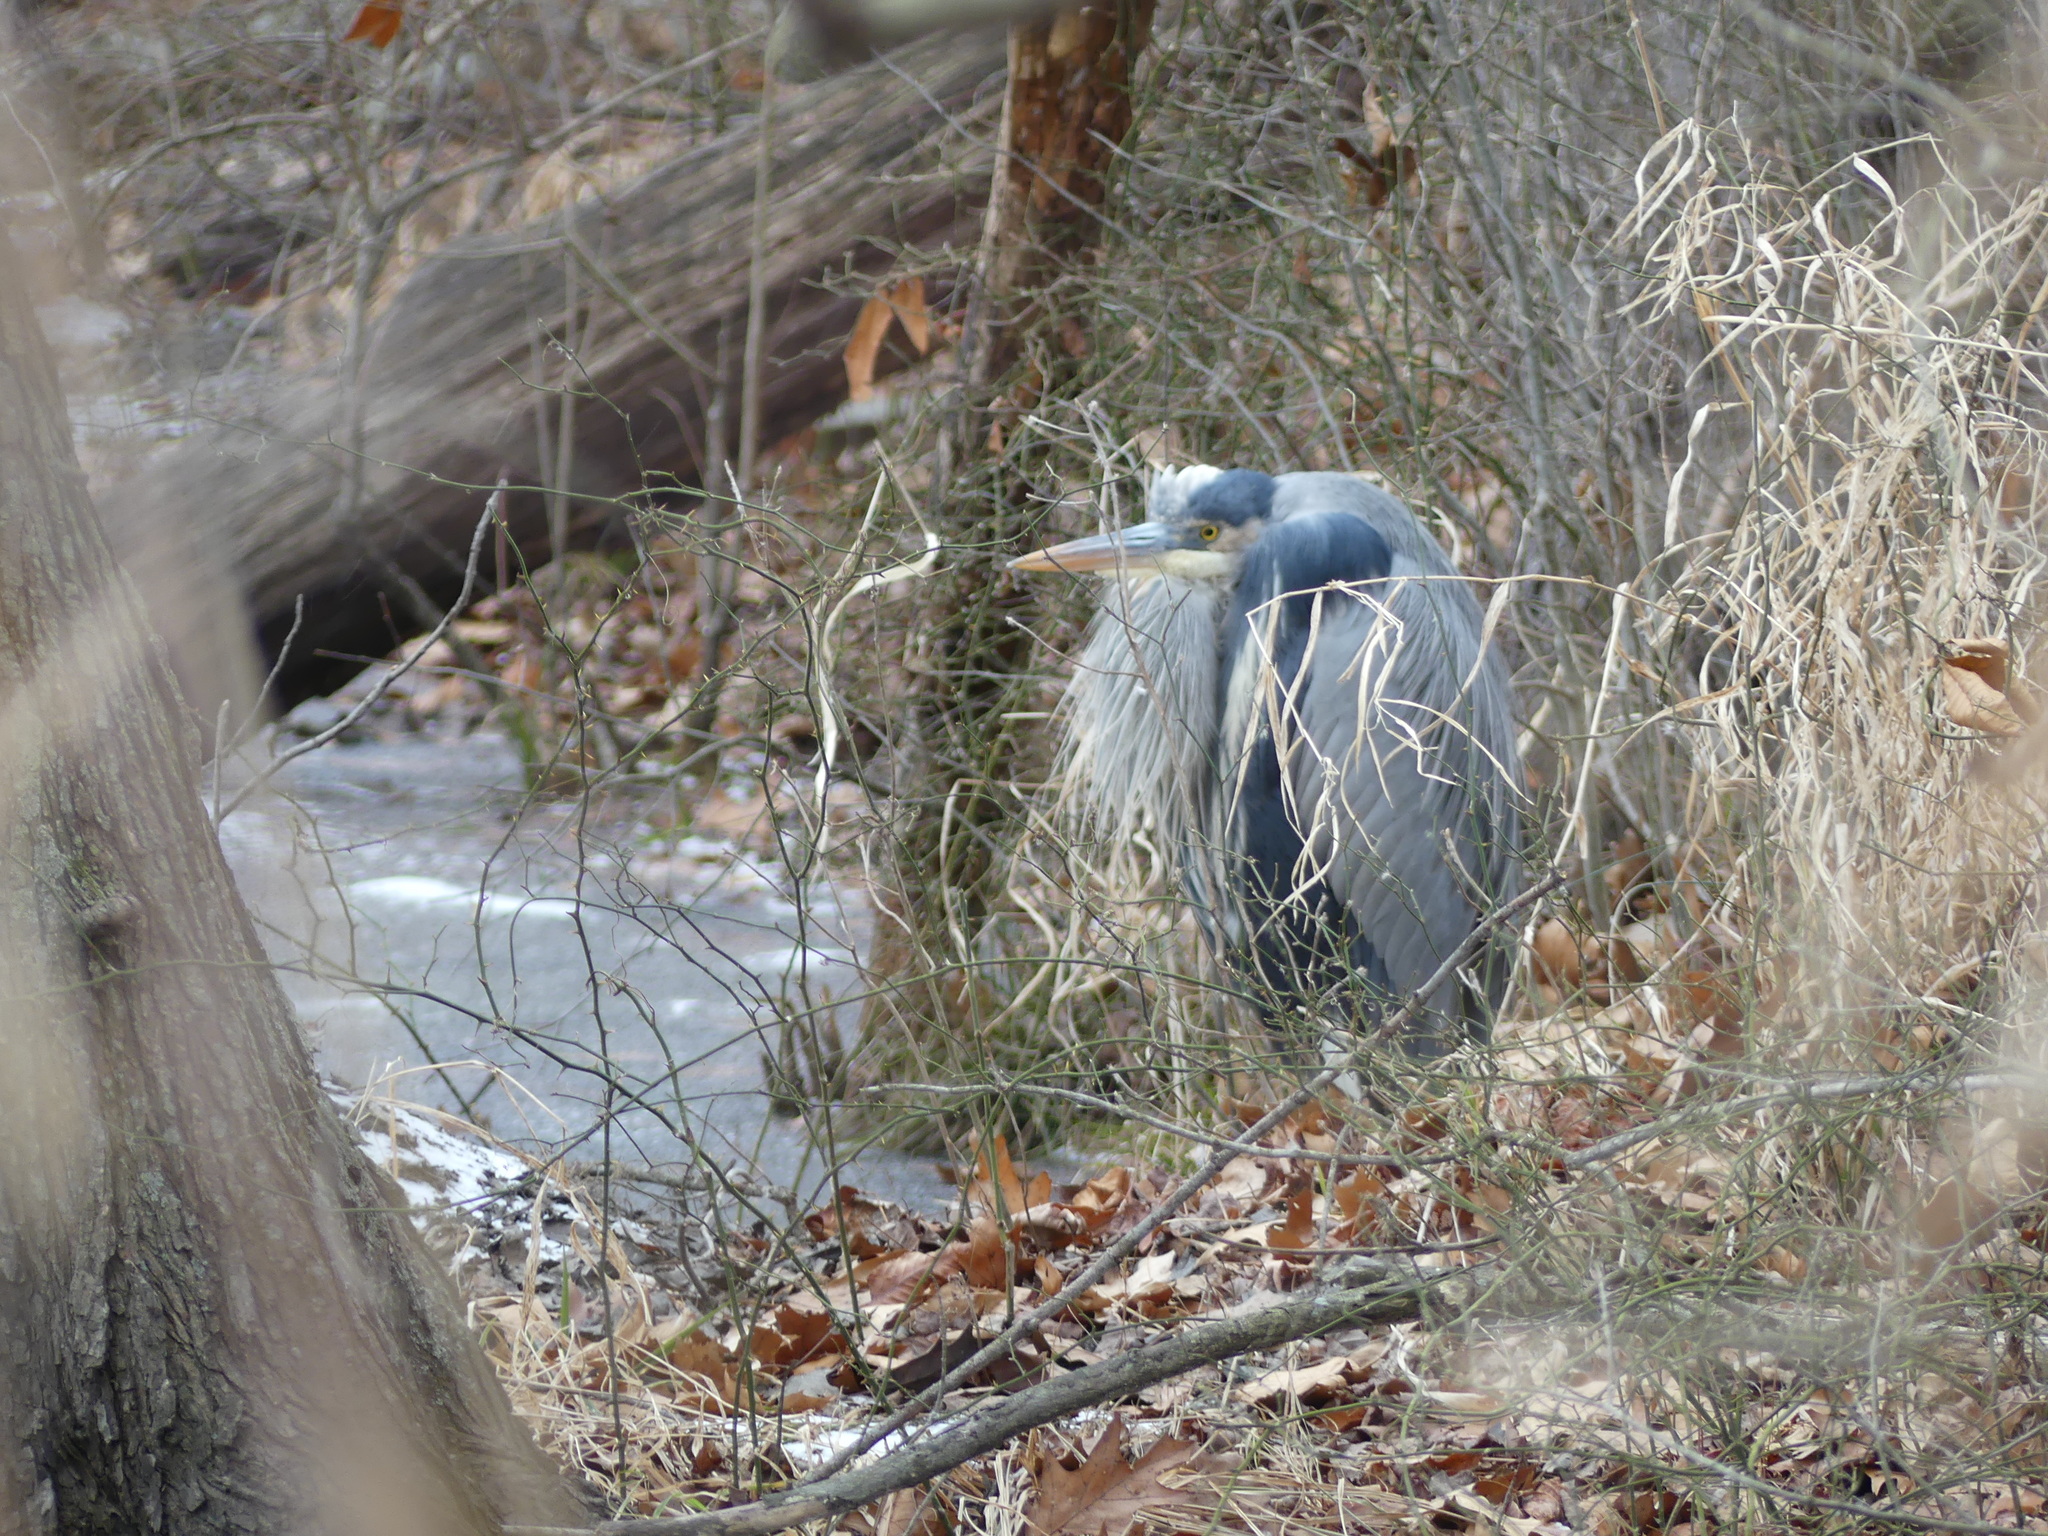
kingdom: Animalia
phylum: Chordata
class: Aves
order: Pelecaniformes
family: Ardeidae
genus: Ardea
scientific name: Ardea herodias
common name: Great blue heron
